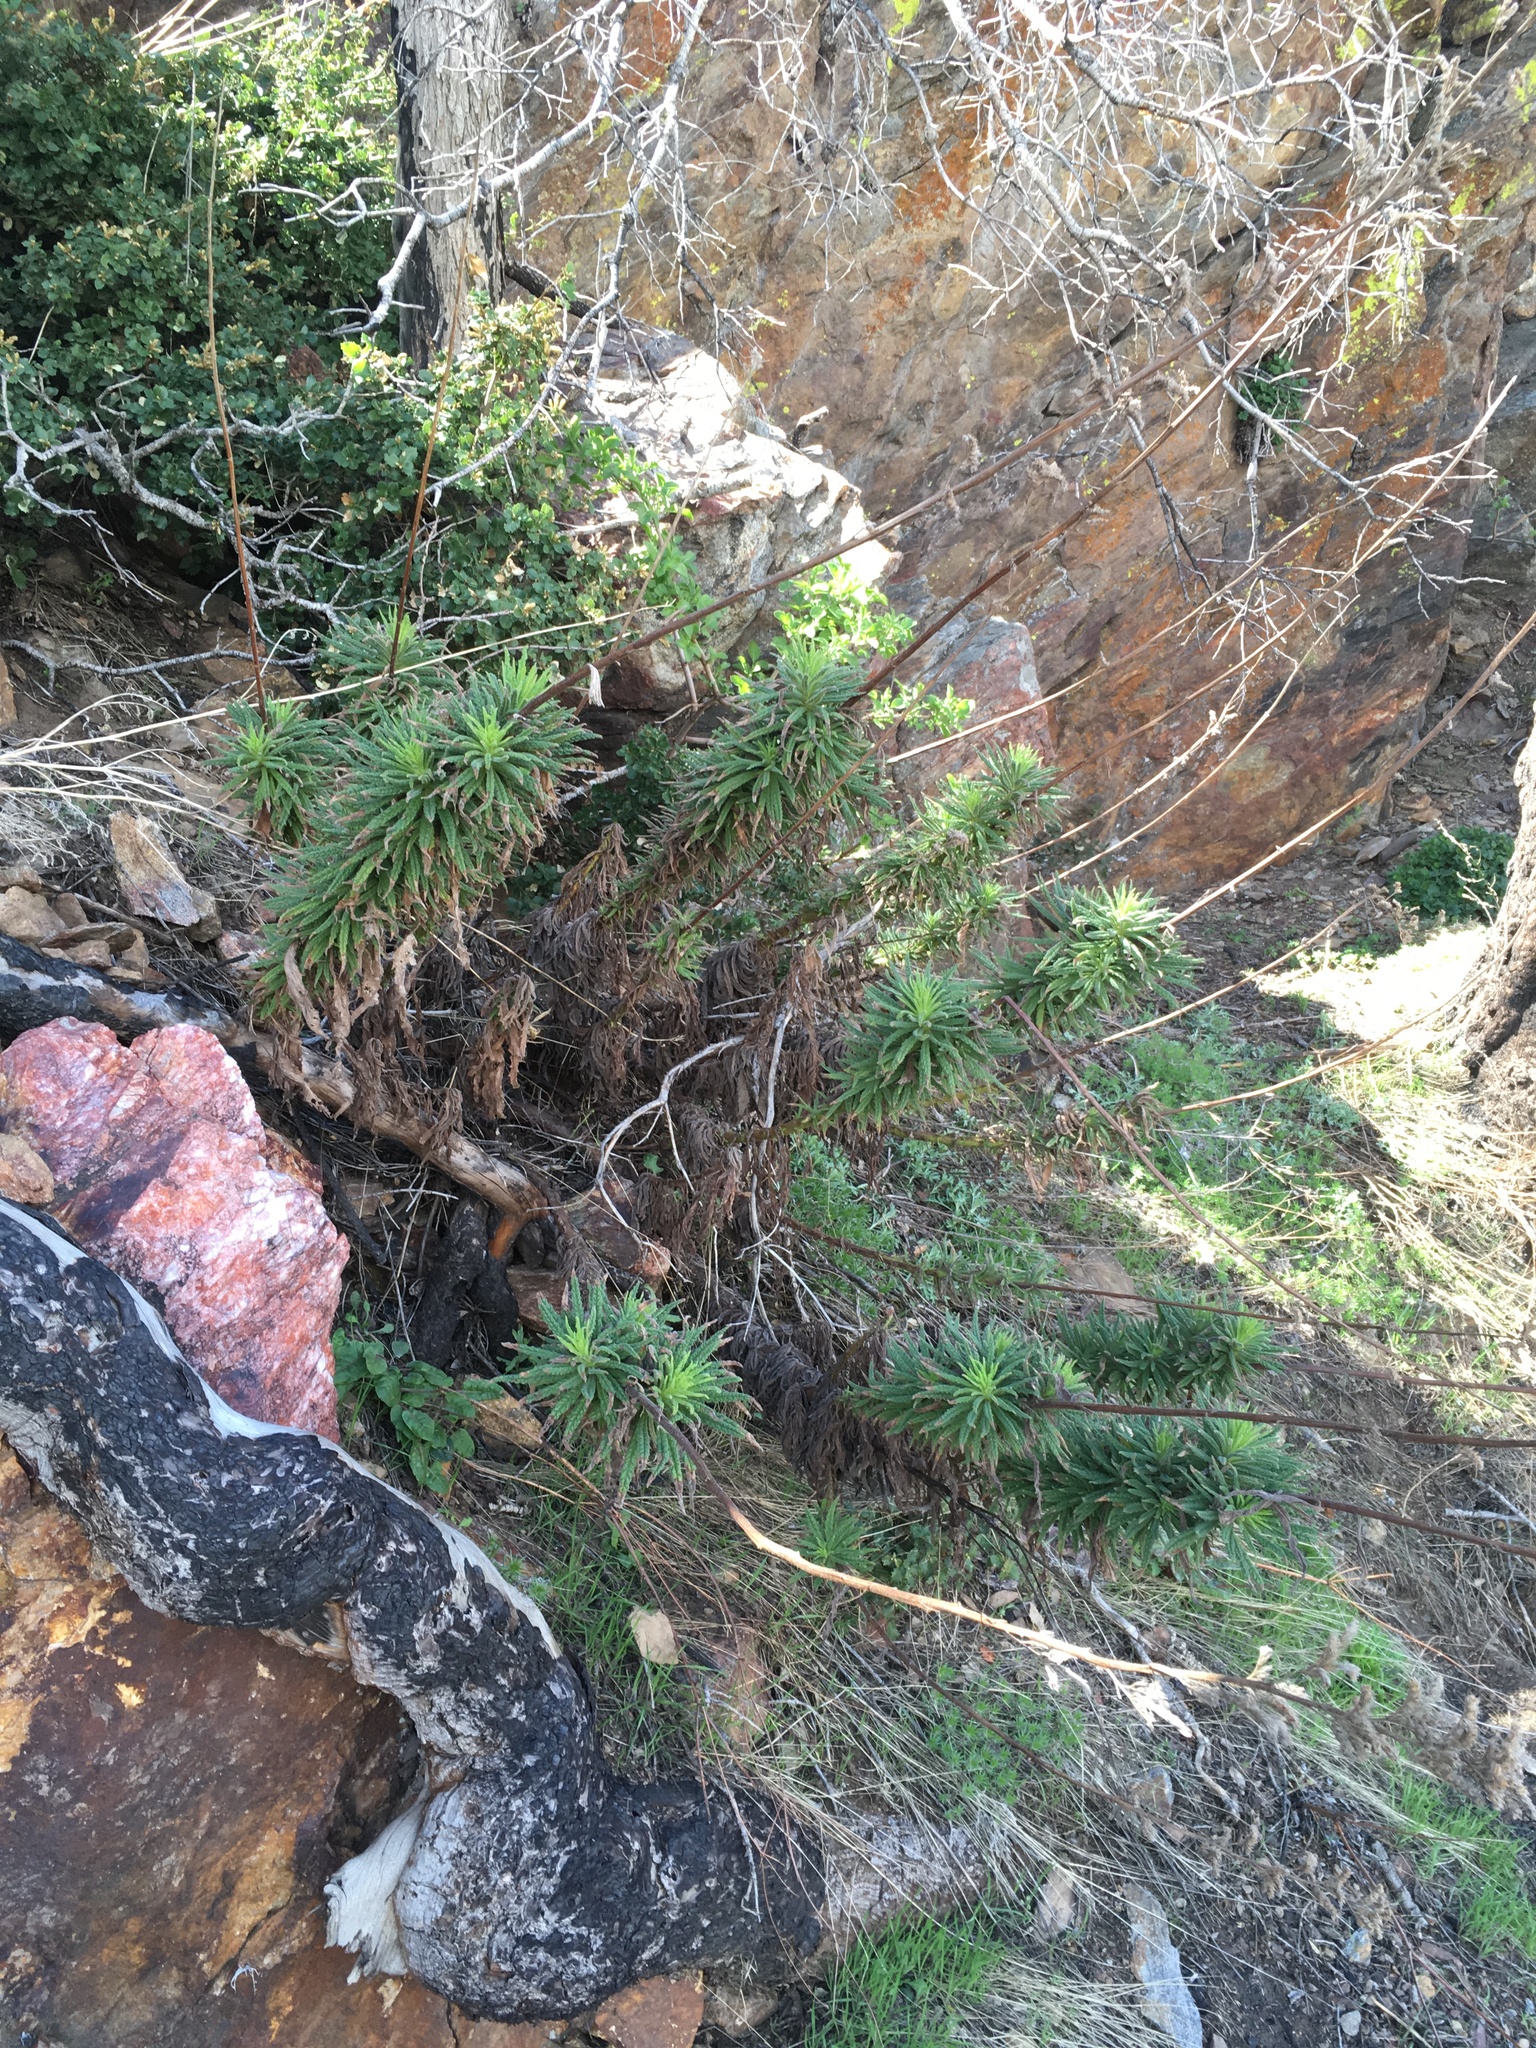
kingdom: Plantae
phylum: Tracheophyta
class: Magnoliopsida
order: Boraginales
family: Namaceae
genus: Turricula
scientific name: Turricula parryi
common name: Poodle-dog-bush
